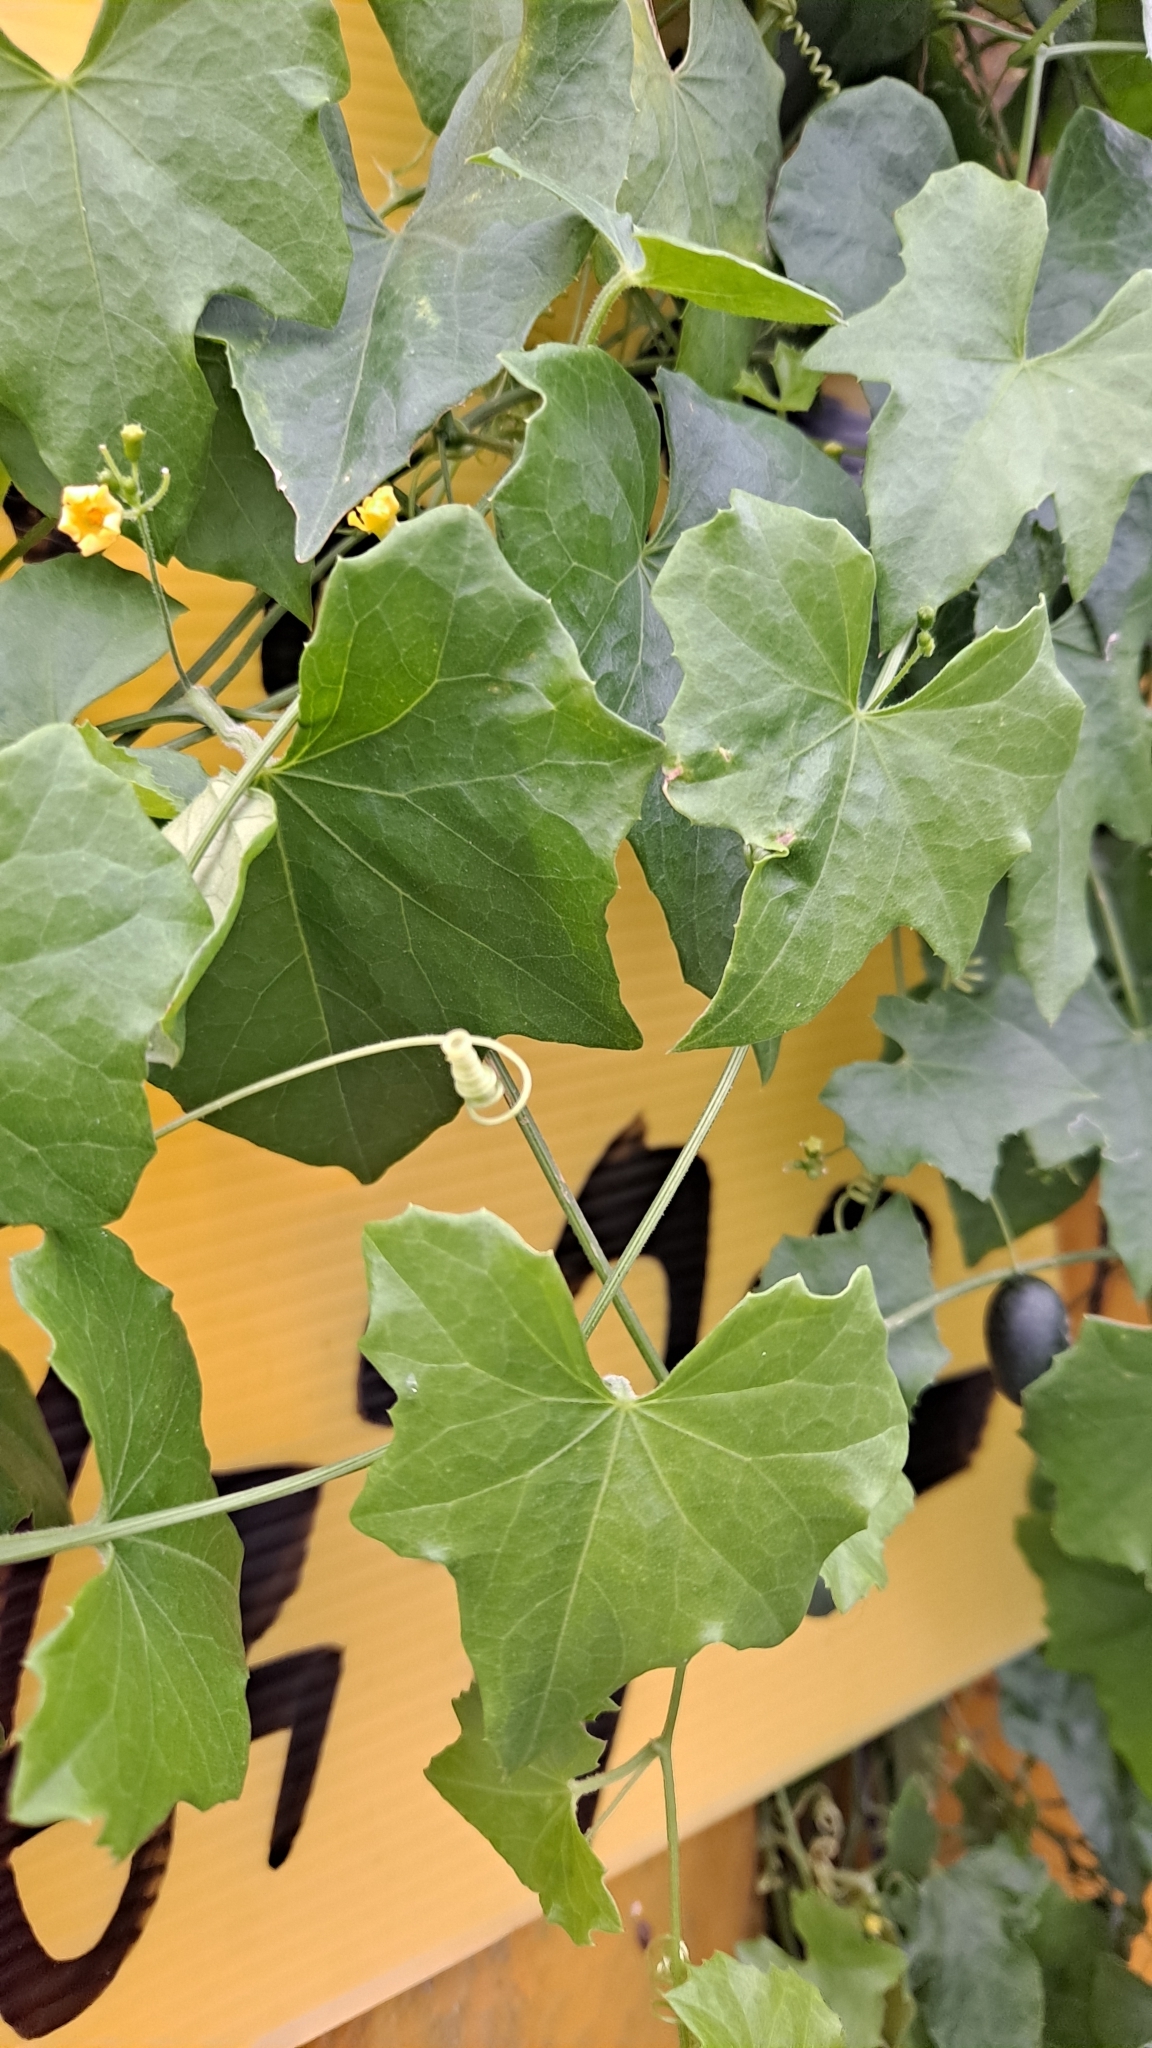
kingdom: Plantae
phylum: Tracheophyta
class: Magnoliopsida
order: Cucurbitales
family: Cucurbitaceae
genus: Melothria
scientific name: Melothria pendula
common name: Creeping-cucumber
